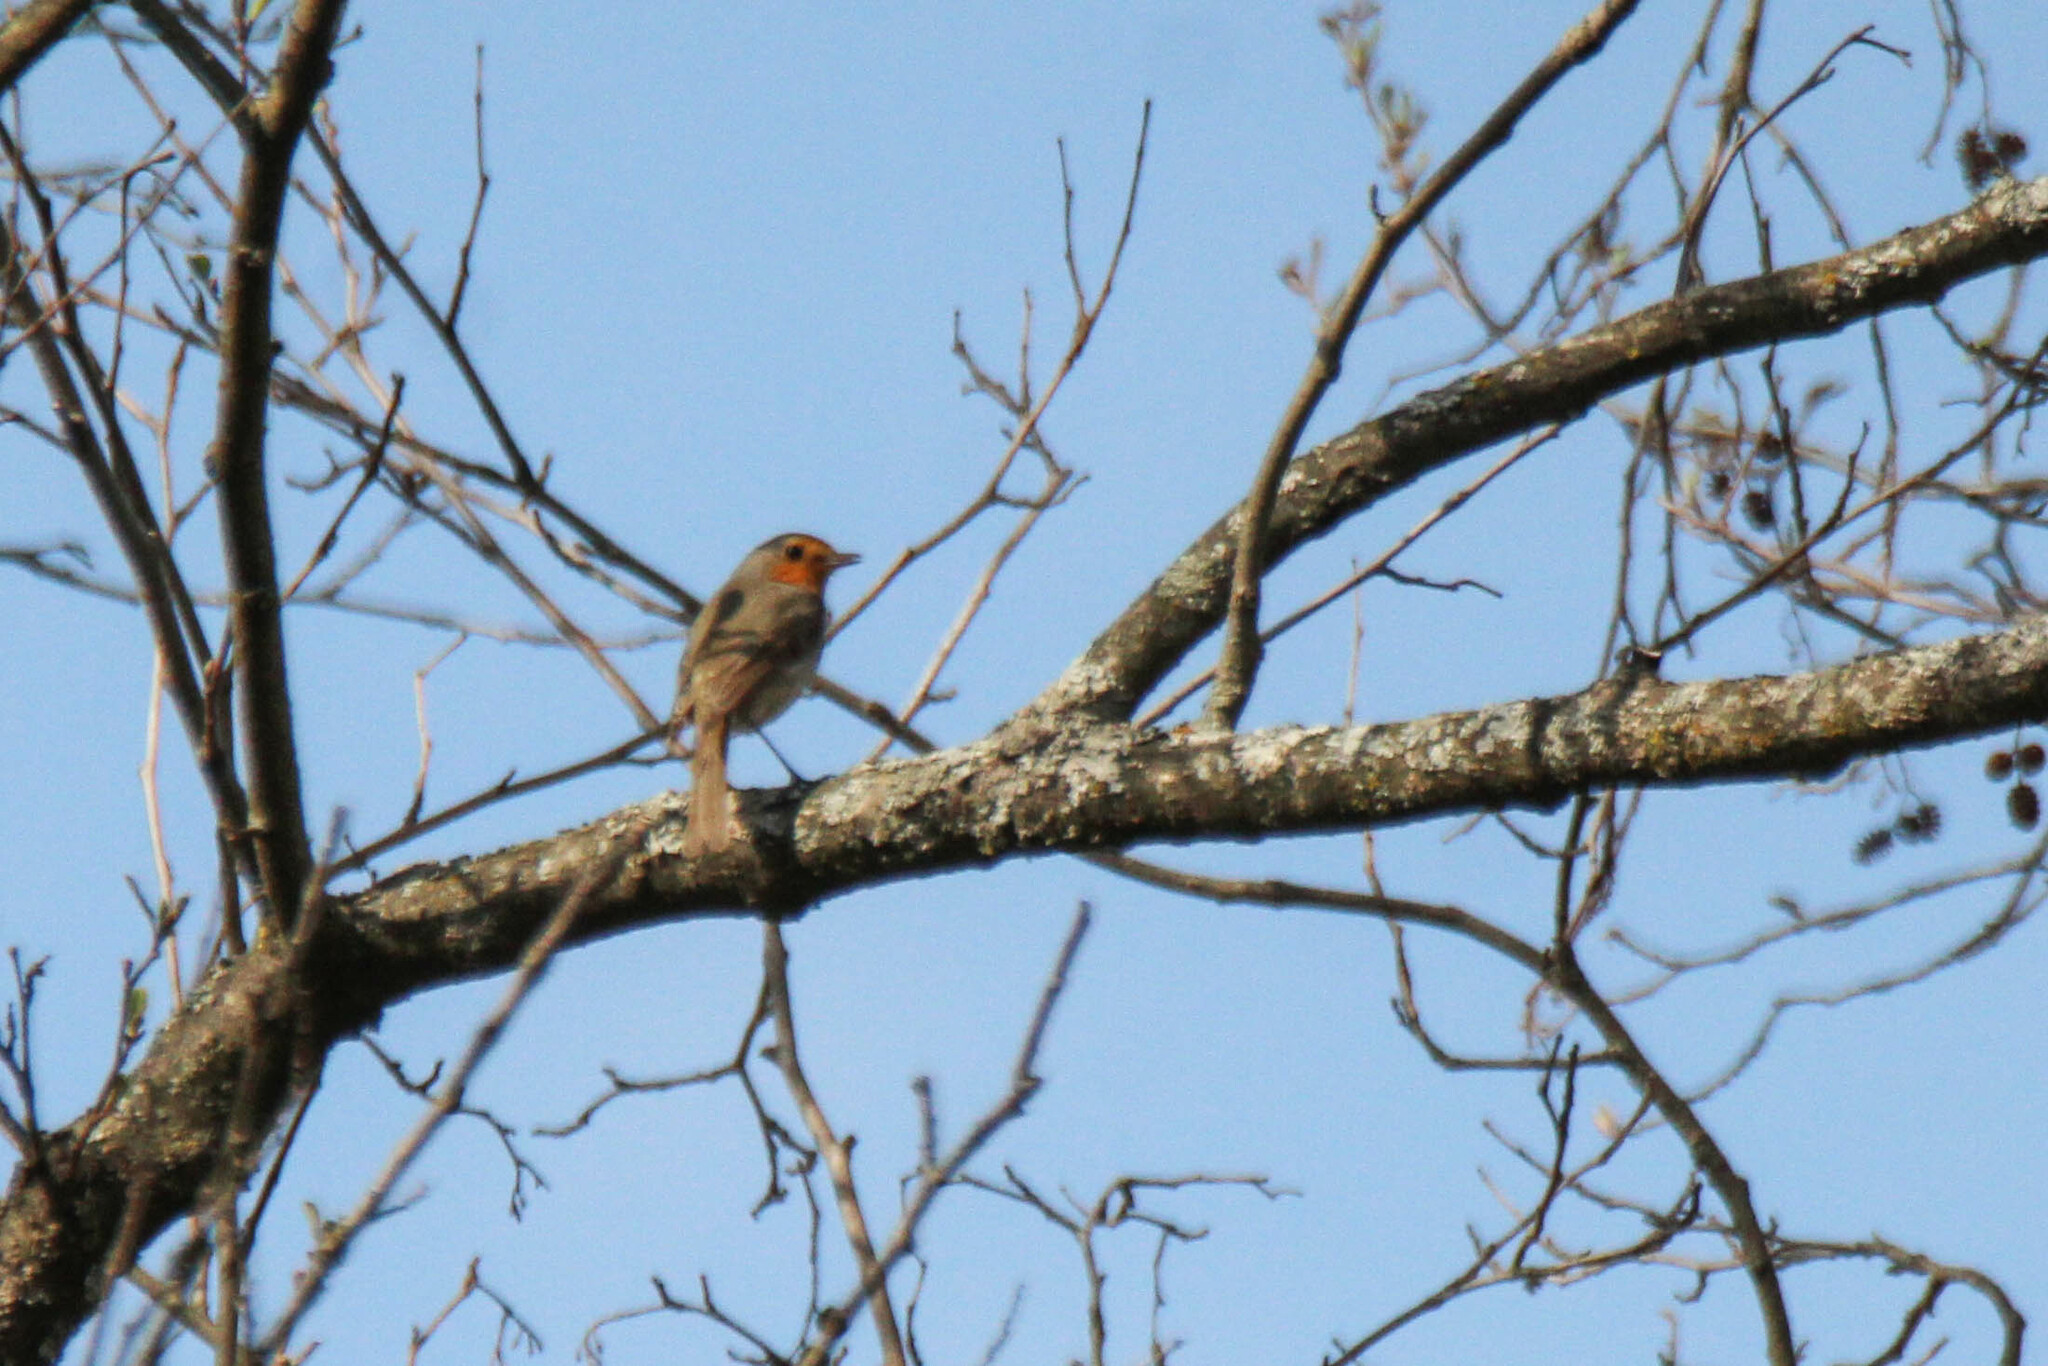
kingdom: Animalia
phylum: Chordata
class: Aves
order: Passeriformes
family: Muscicapidae
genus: Erithacus
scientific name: Erithacus rubecula
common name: European robin
